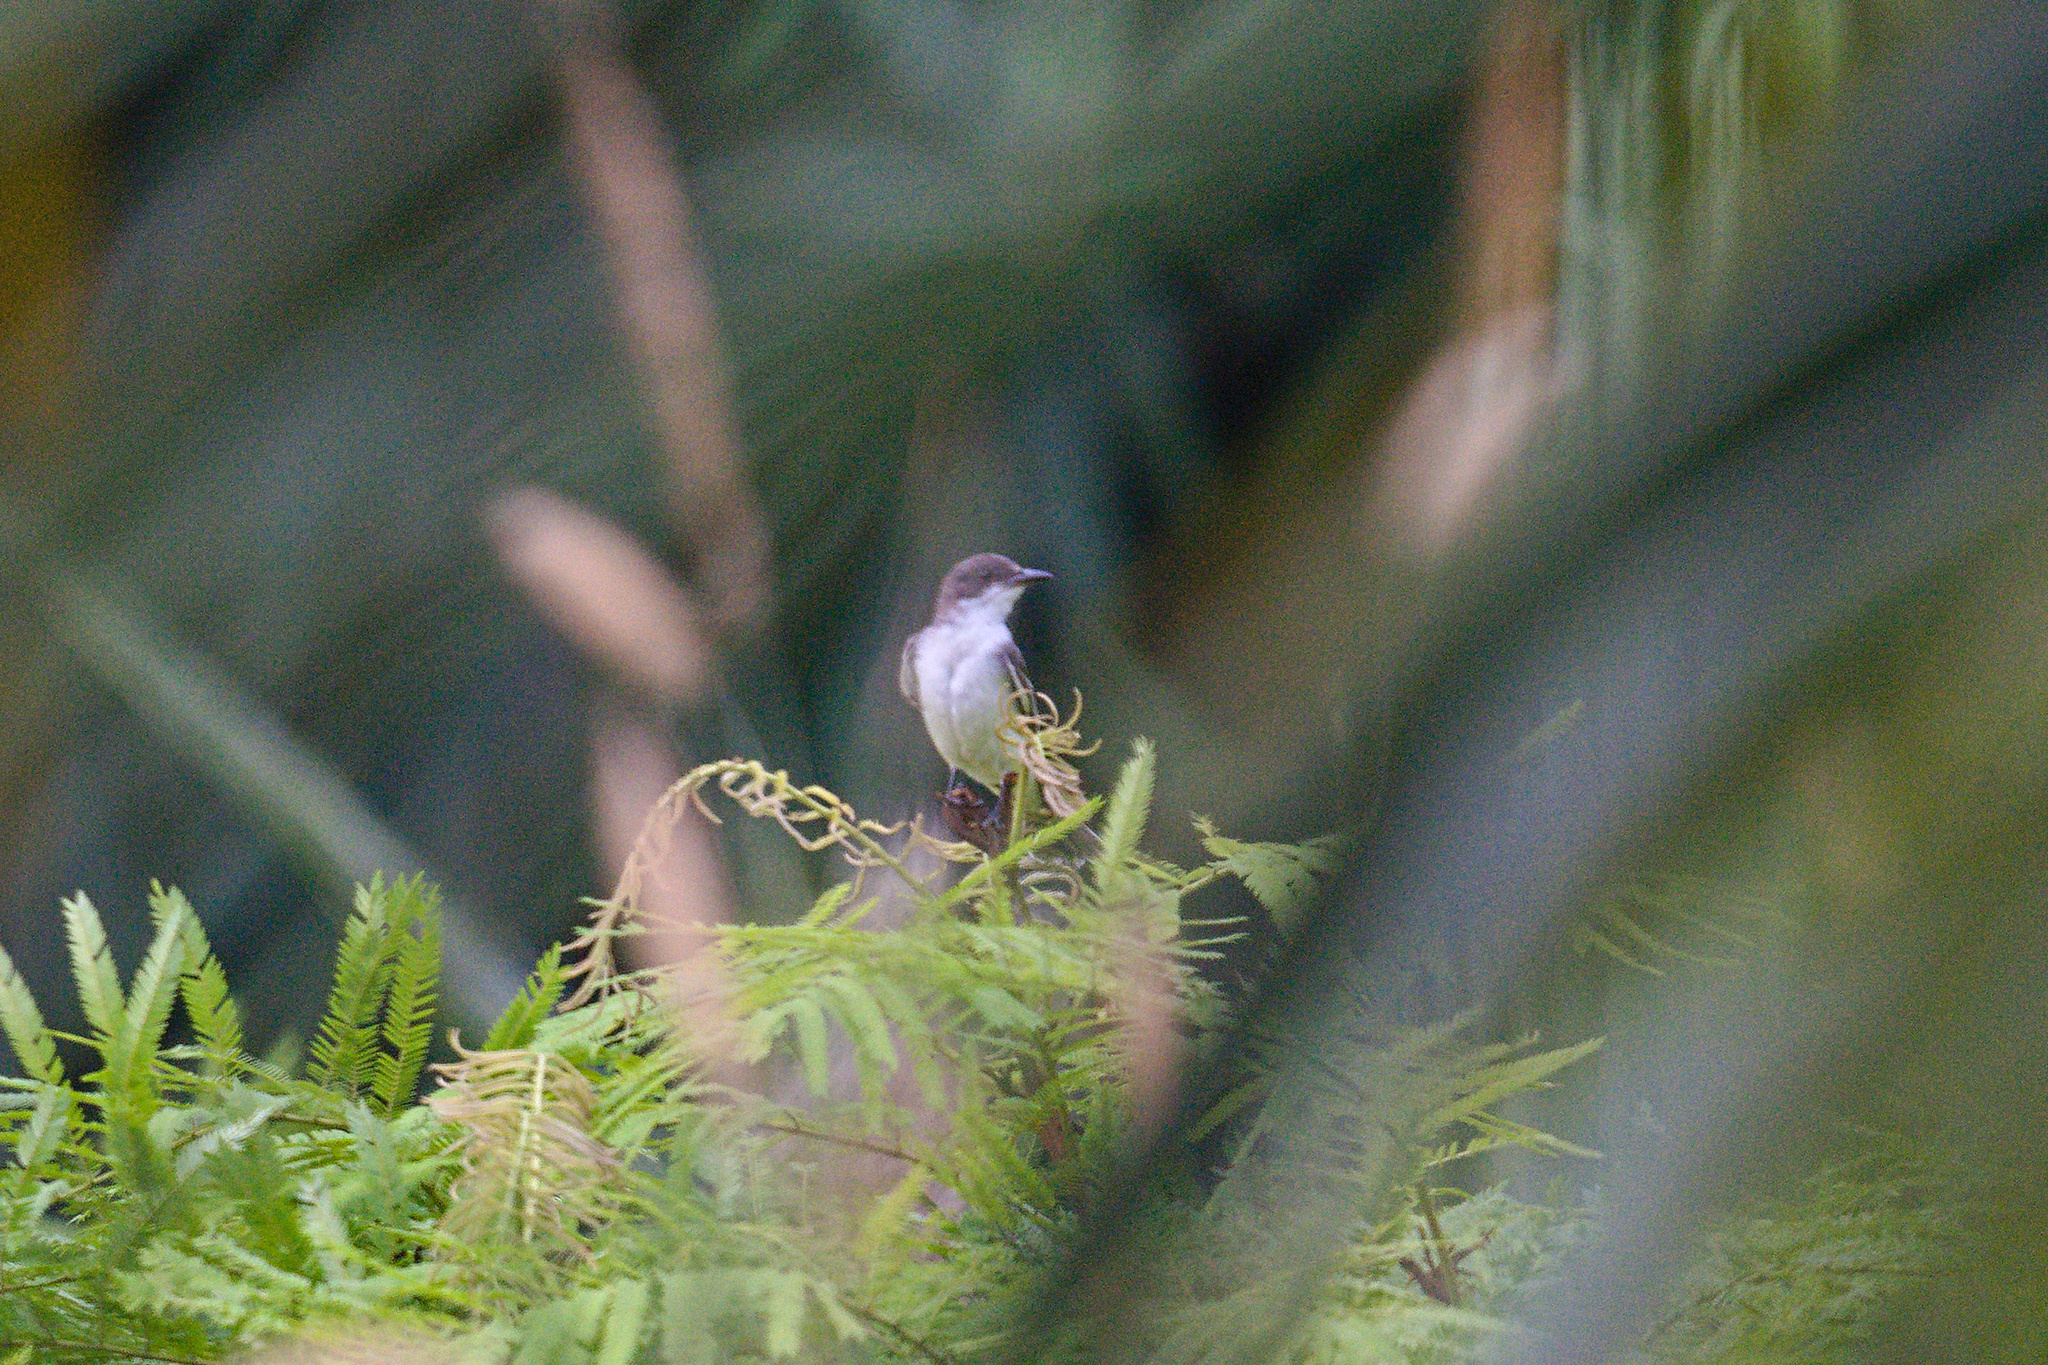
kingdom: Animalia
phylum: Chordata
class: Aves
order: Passeriformes
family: Tyrannidae
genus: Tyrannus
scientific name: Tyrannus tyrannus
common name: Eastern kingbird
